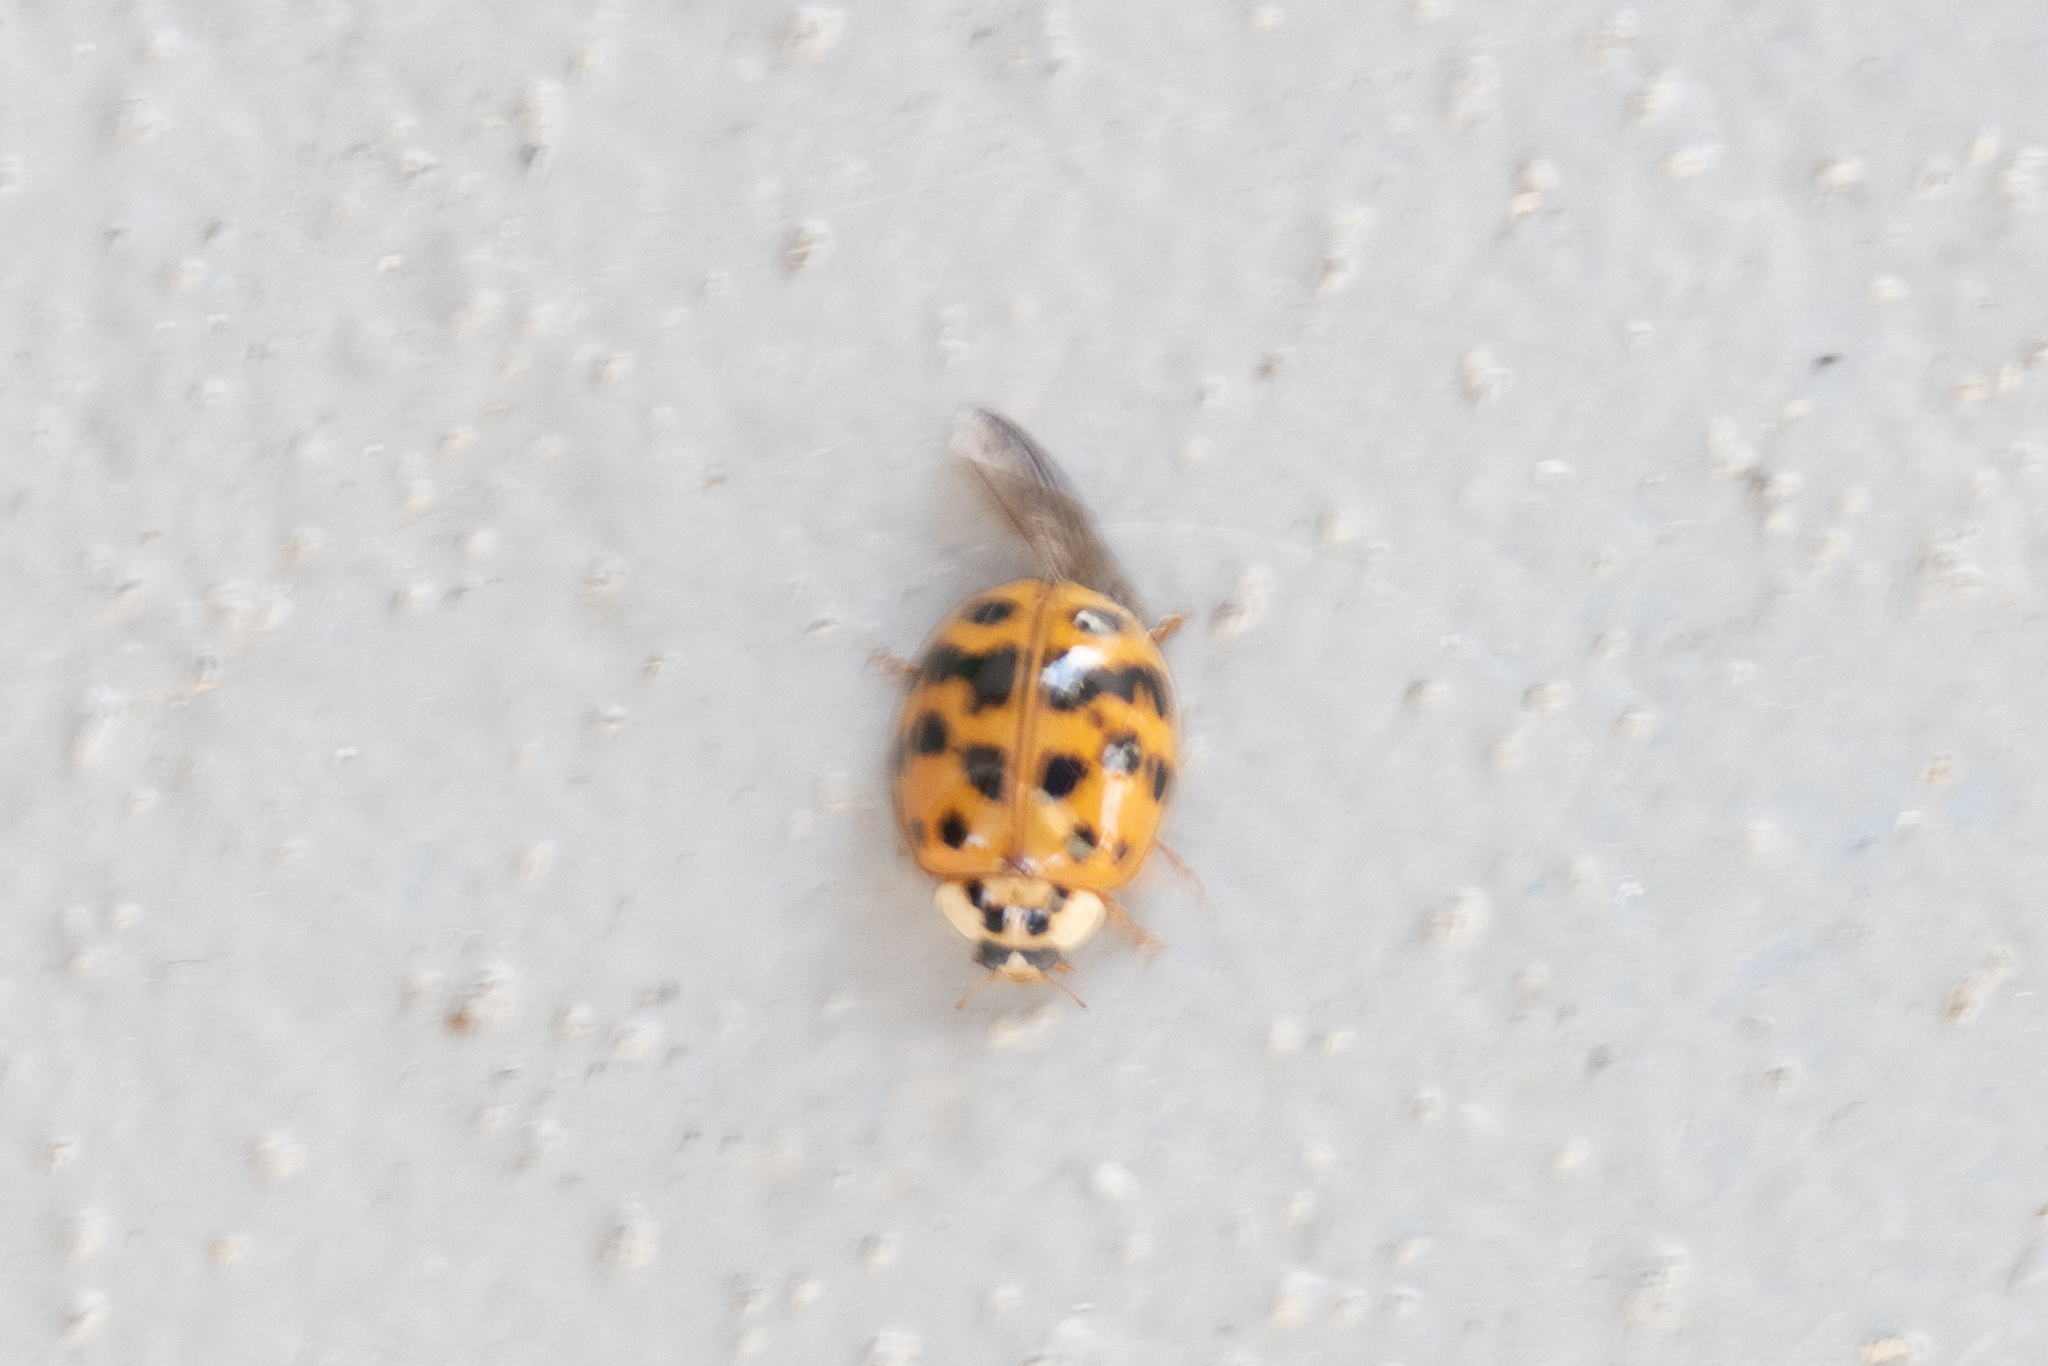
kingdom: Animalia
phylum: Arthropoda
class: Insecta
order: Coleoptera
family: Coccinellidae
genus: Harmonia
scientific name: Harmonia axyridis
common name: Harlequin ladybird
